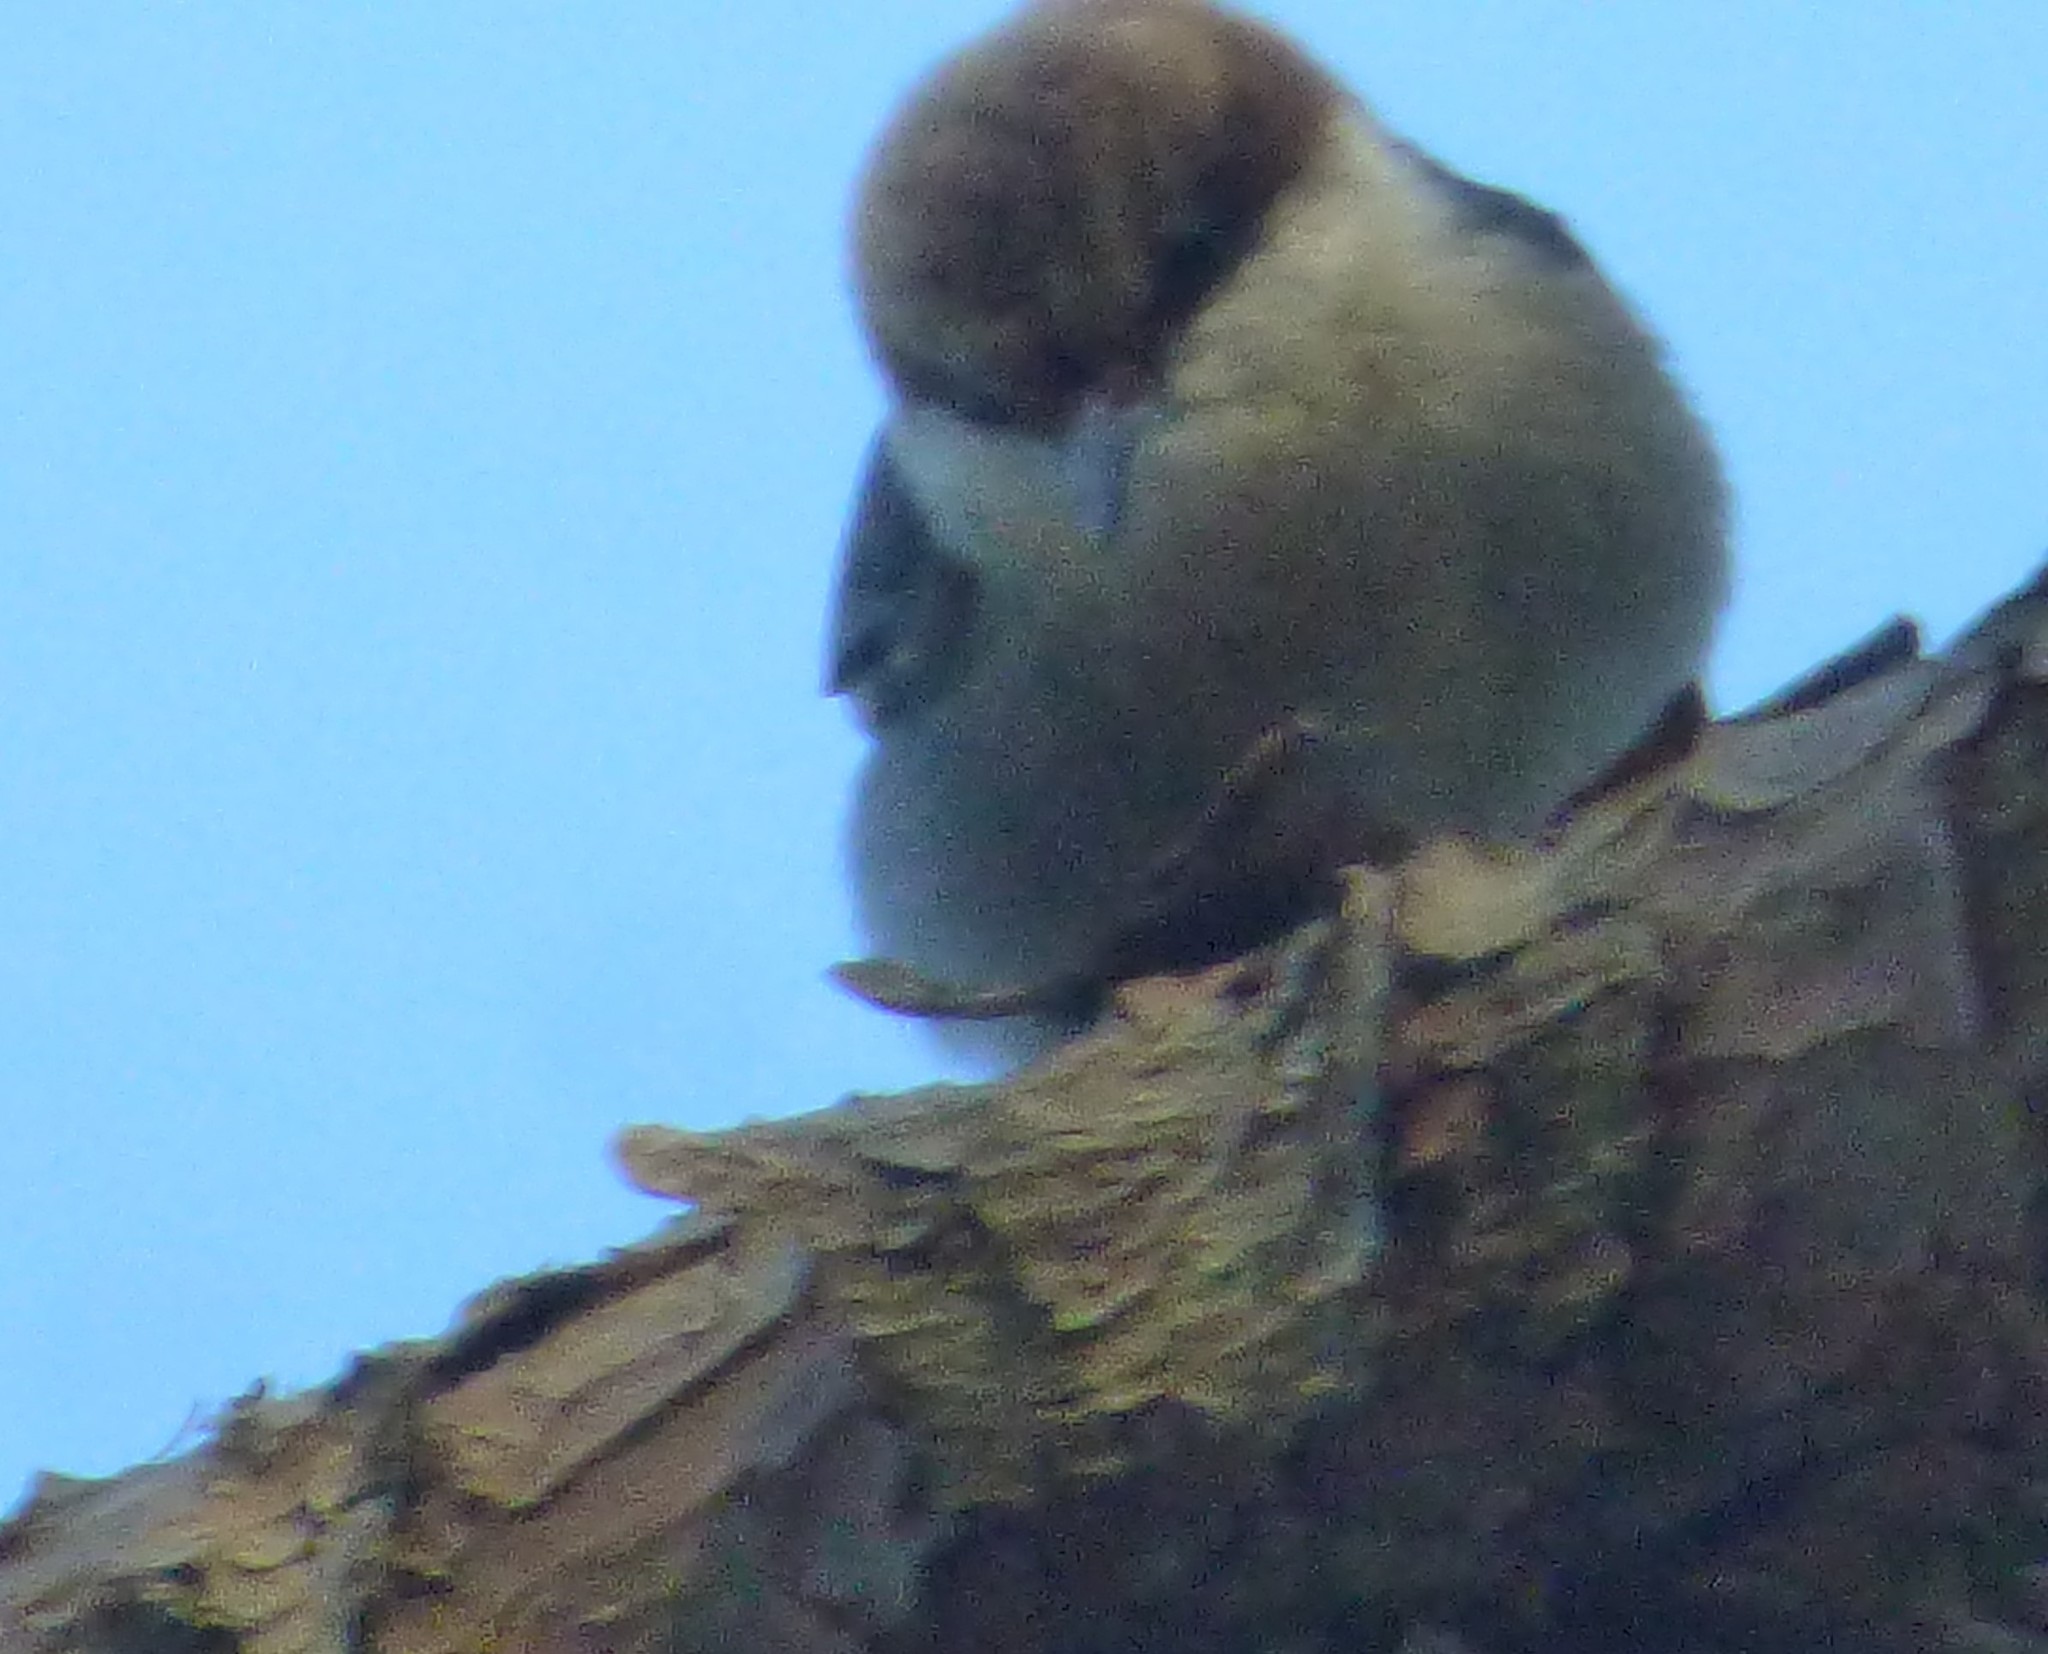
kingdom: Animalia
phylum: Chordata
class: Aves
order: Passeriformes
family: Sittidae
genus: Sitta
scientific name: Sitta pusilla
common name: Brown-headed nuthatch
